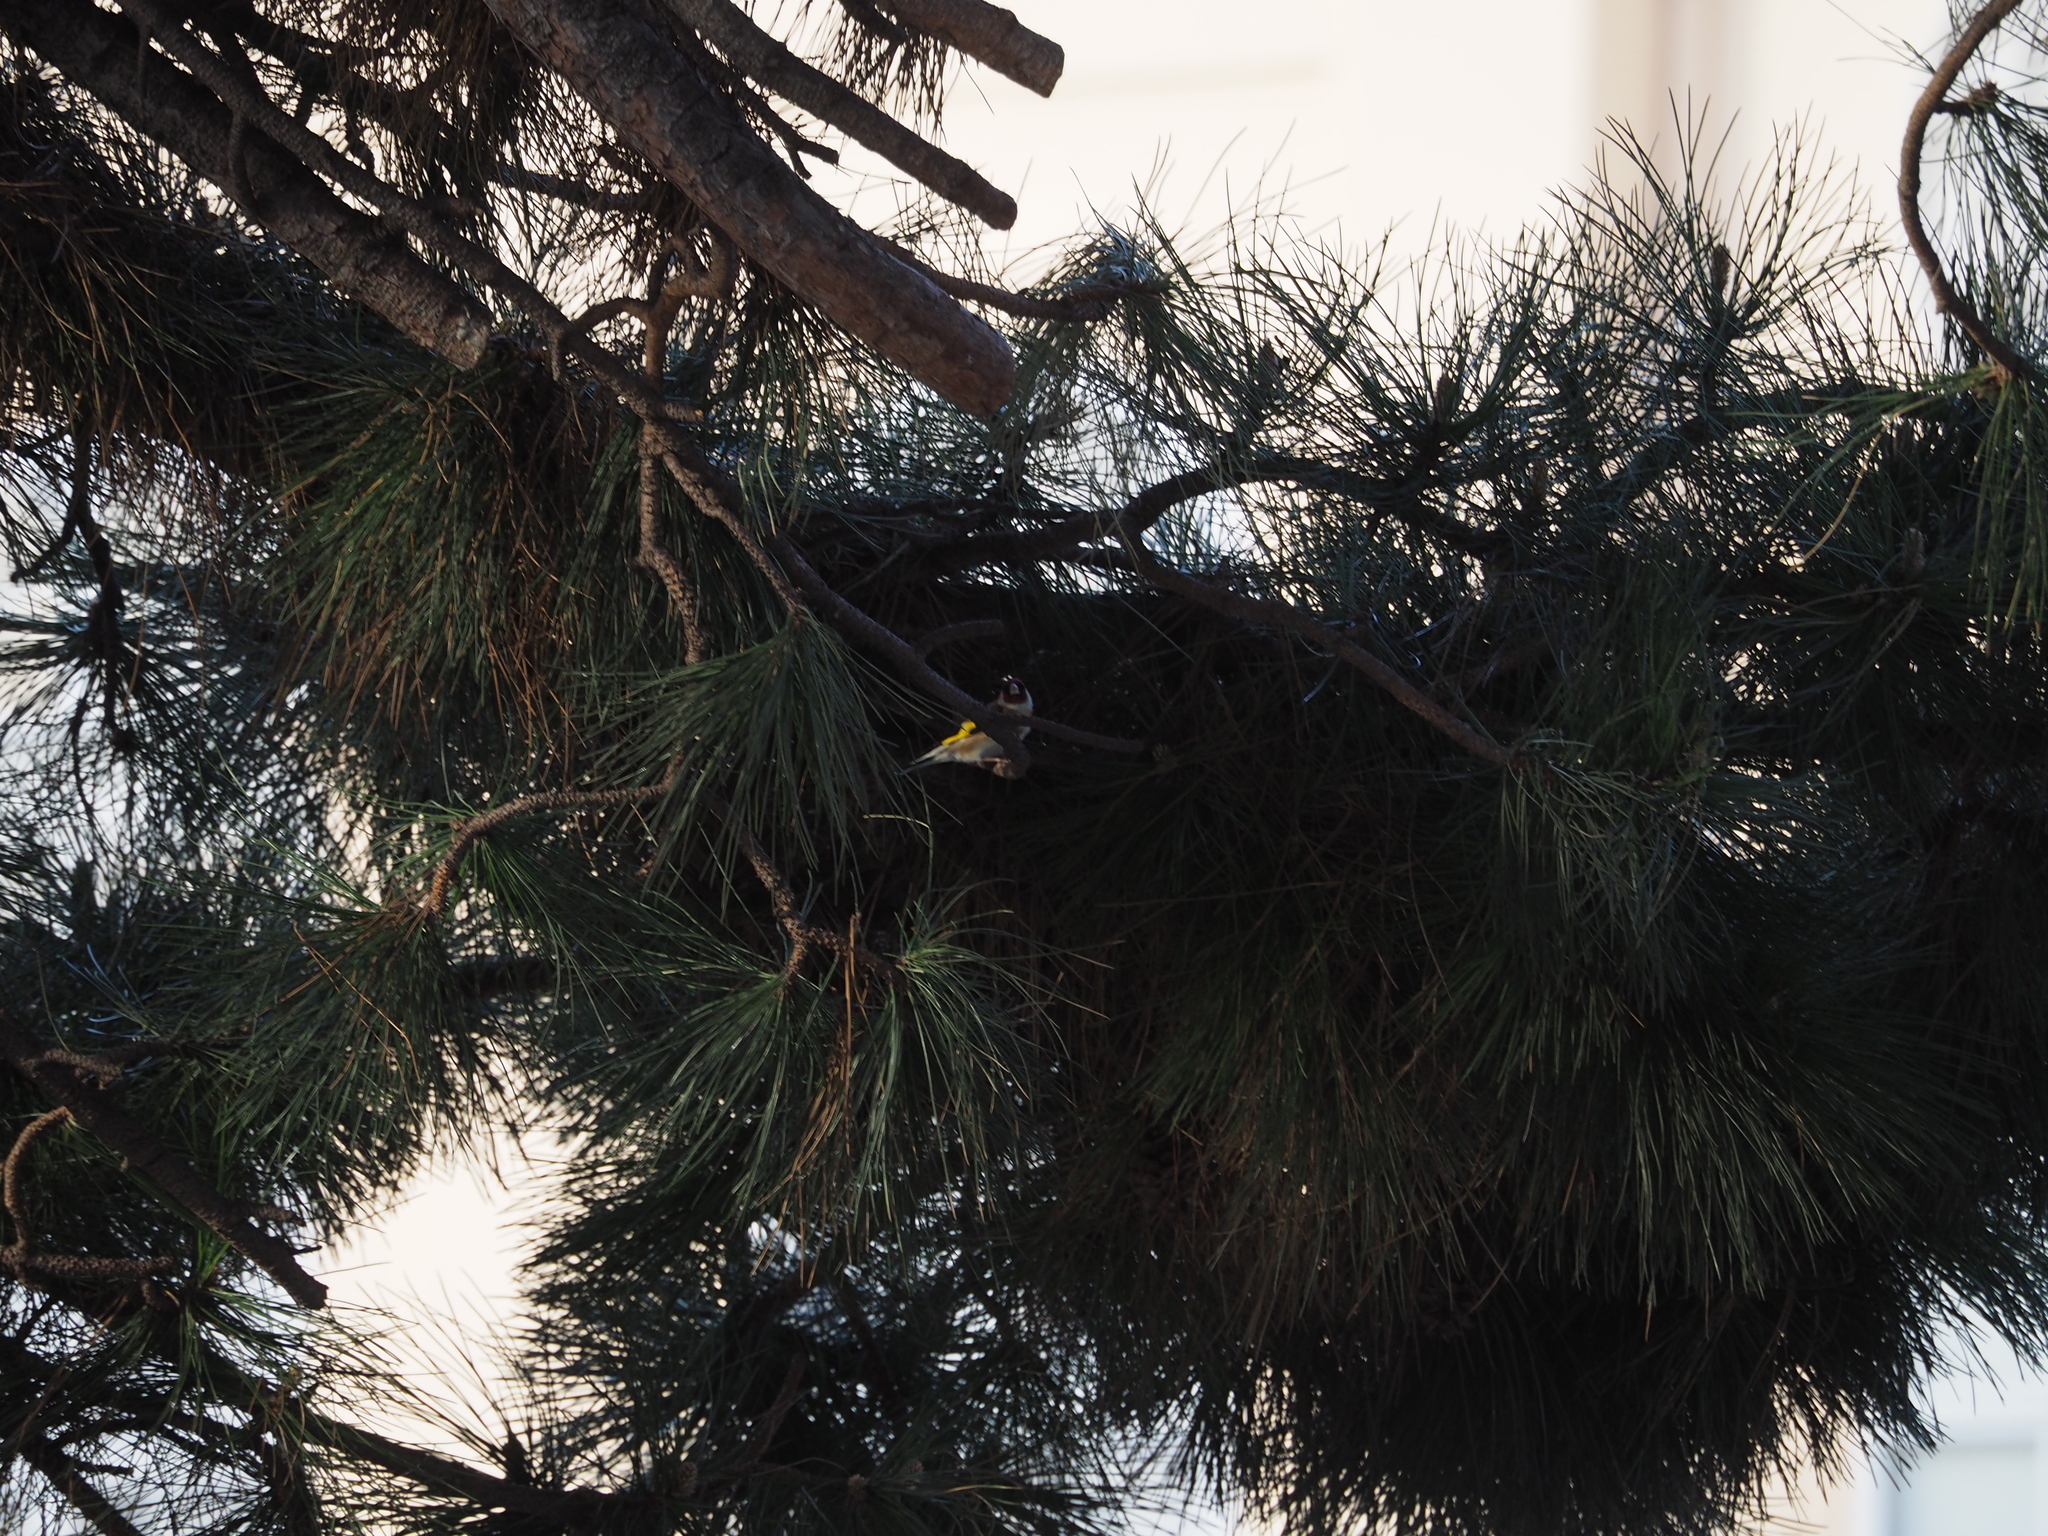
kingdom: Animalia
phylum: Chordata
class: Aves
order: Passeriformes
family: Fringillidae
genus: Carduelis
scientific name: Carduelis carduelis
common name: European goldfinch
